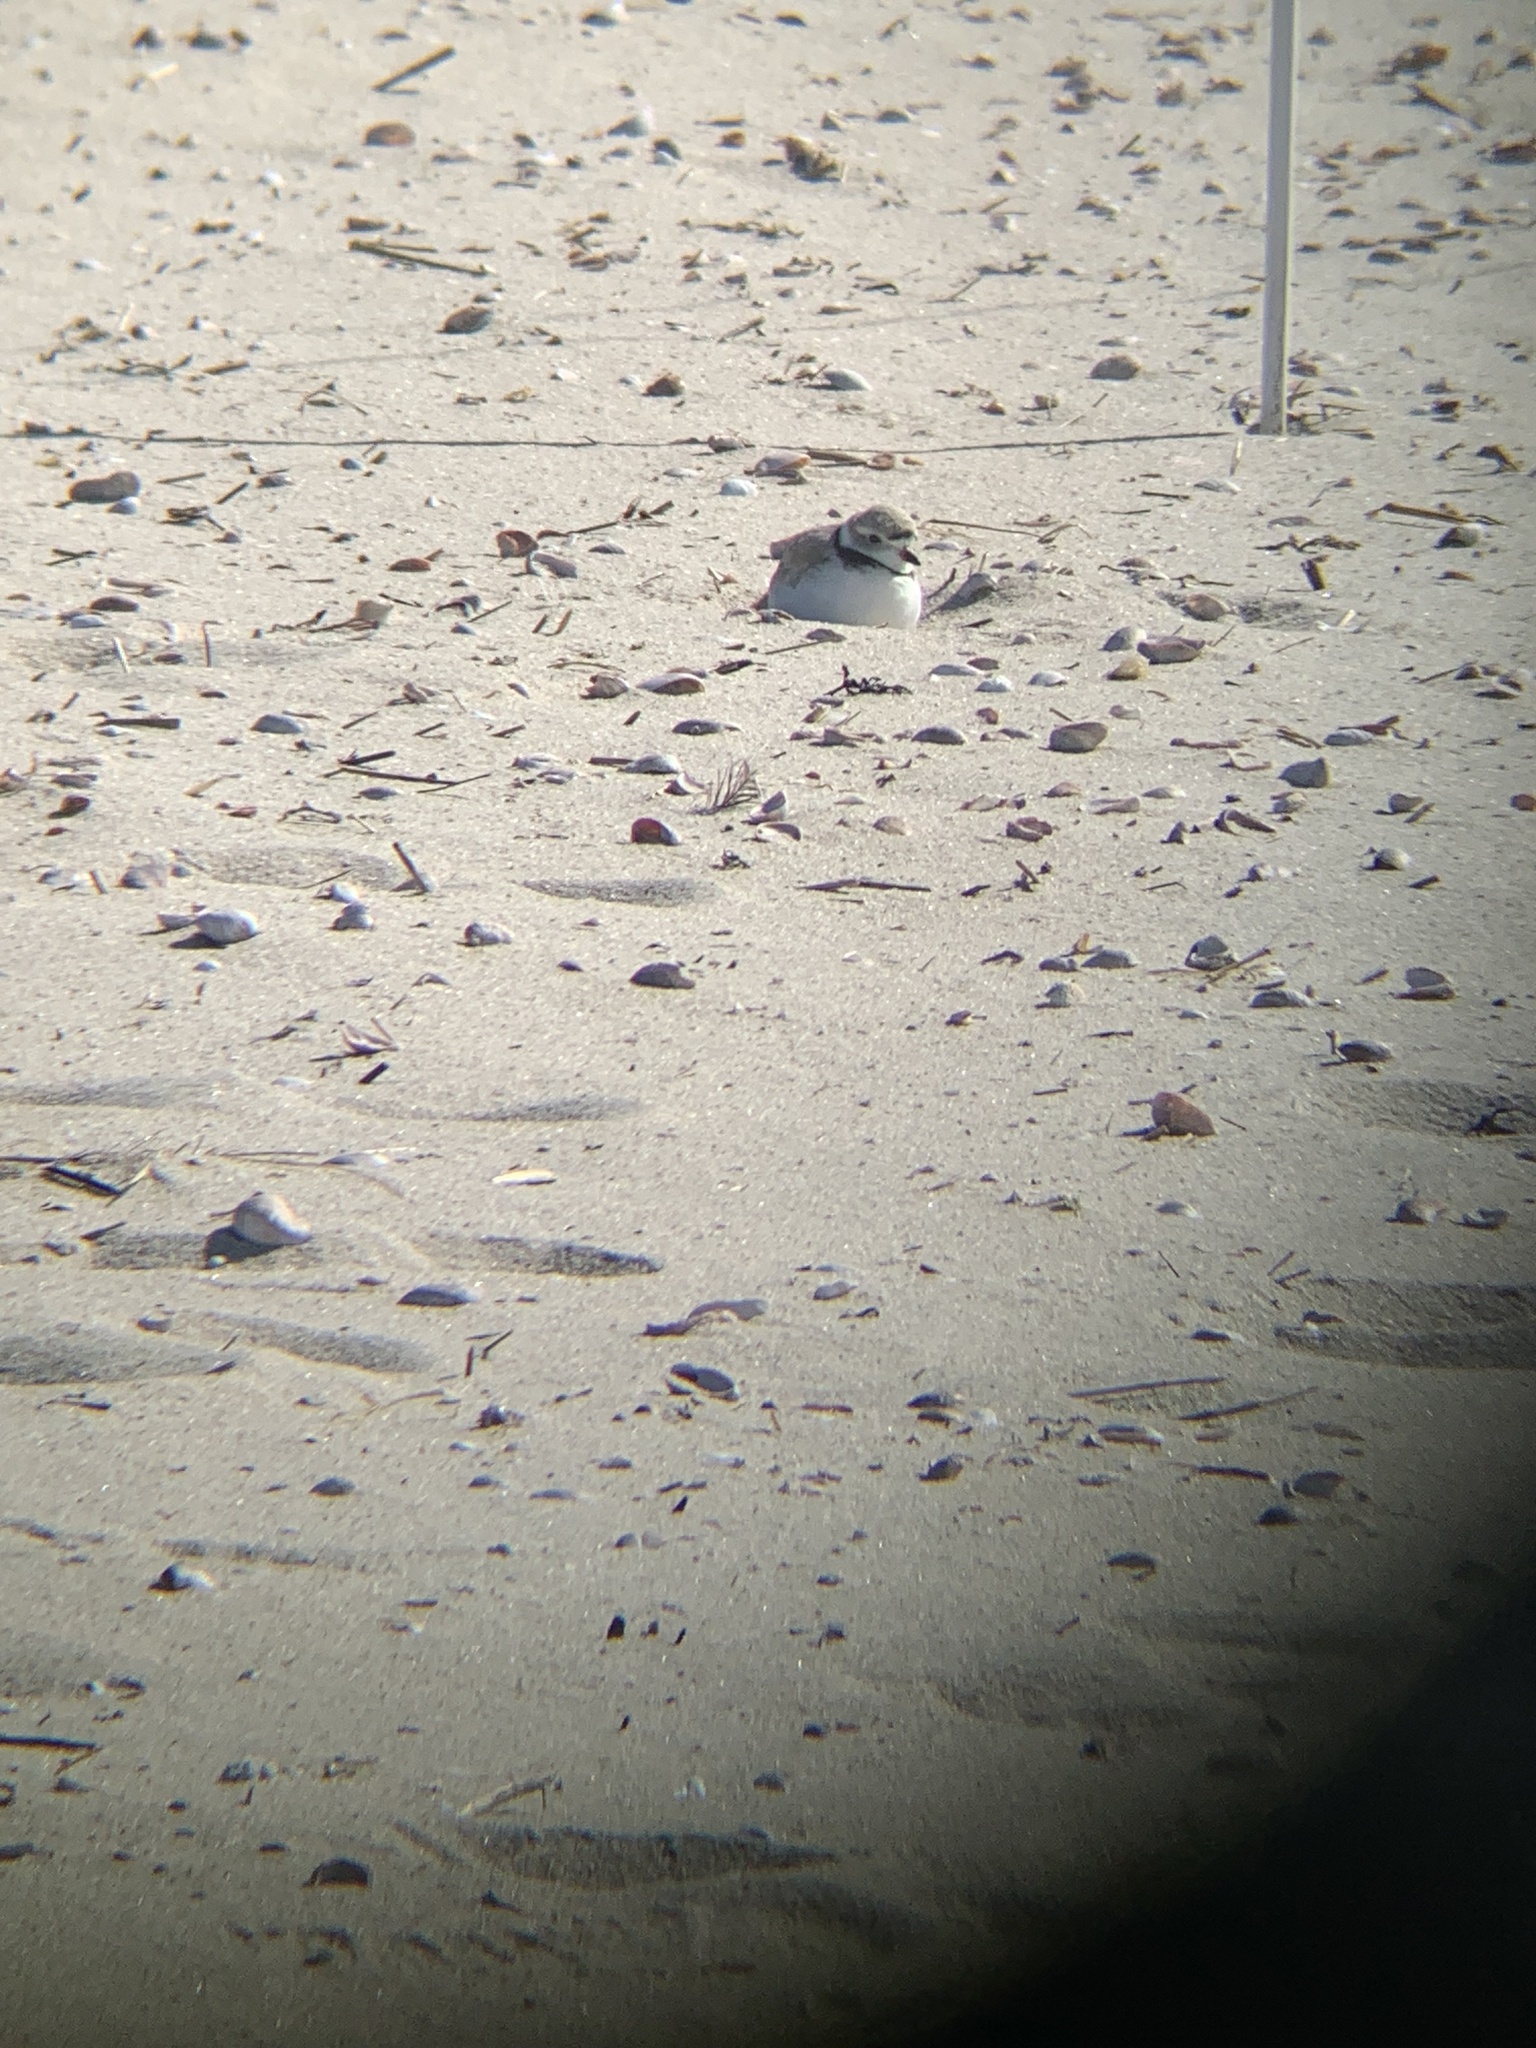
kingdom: Animalia
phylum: Chordata
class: Aves
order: Charadriiformes
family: Charadriidae
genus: Charadrius
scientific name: Charadrius melodus
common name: Piping plover
